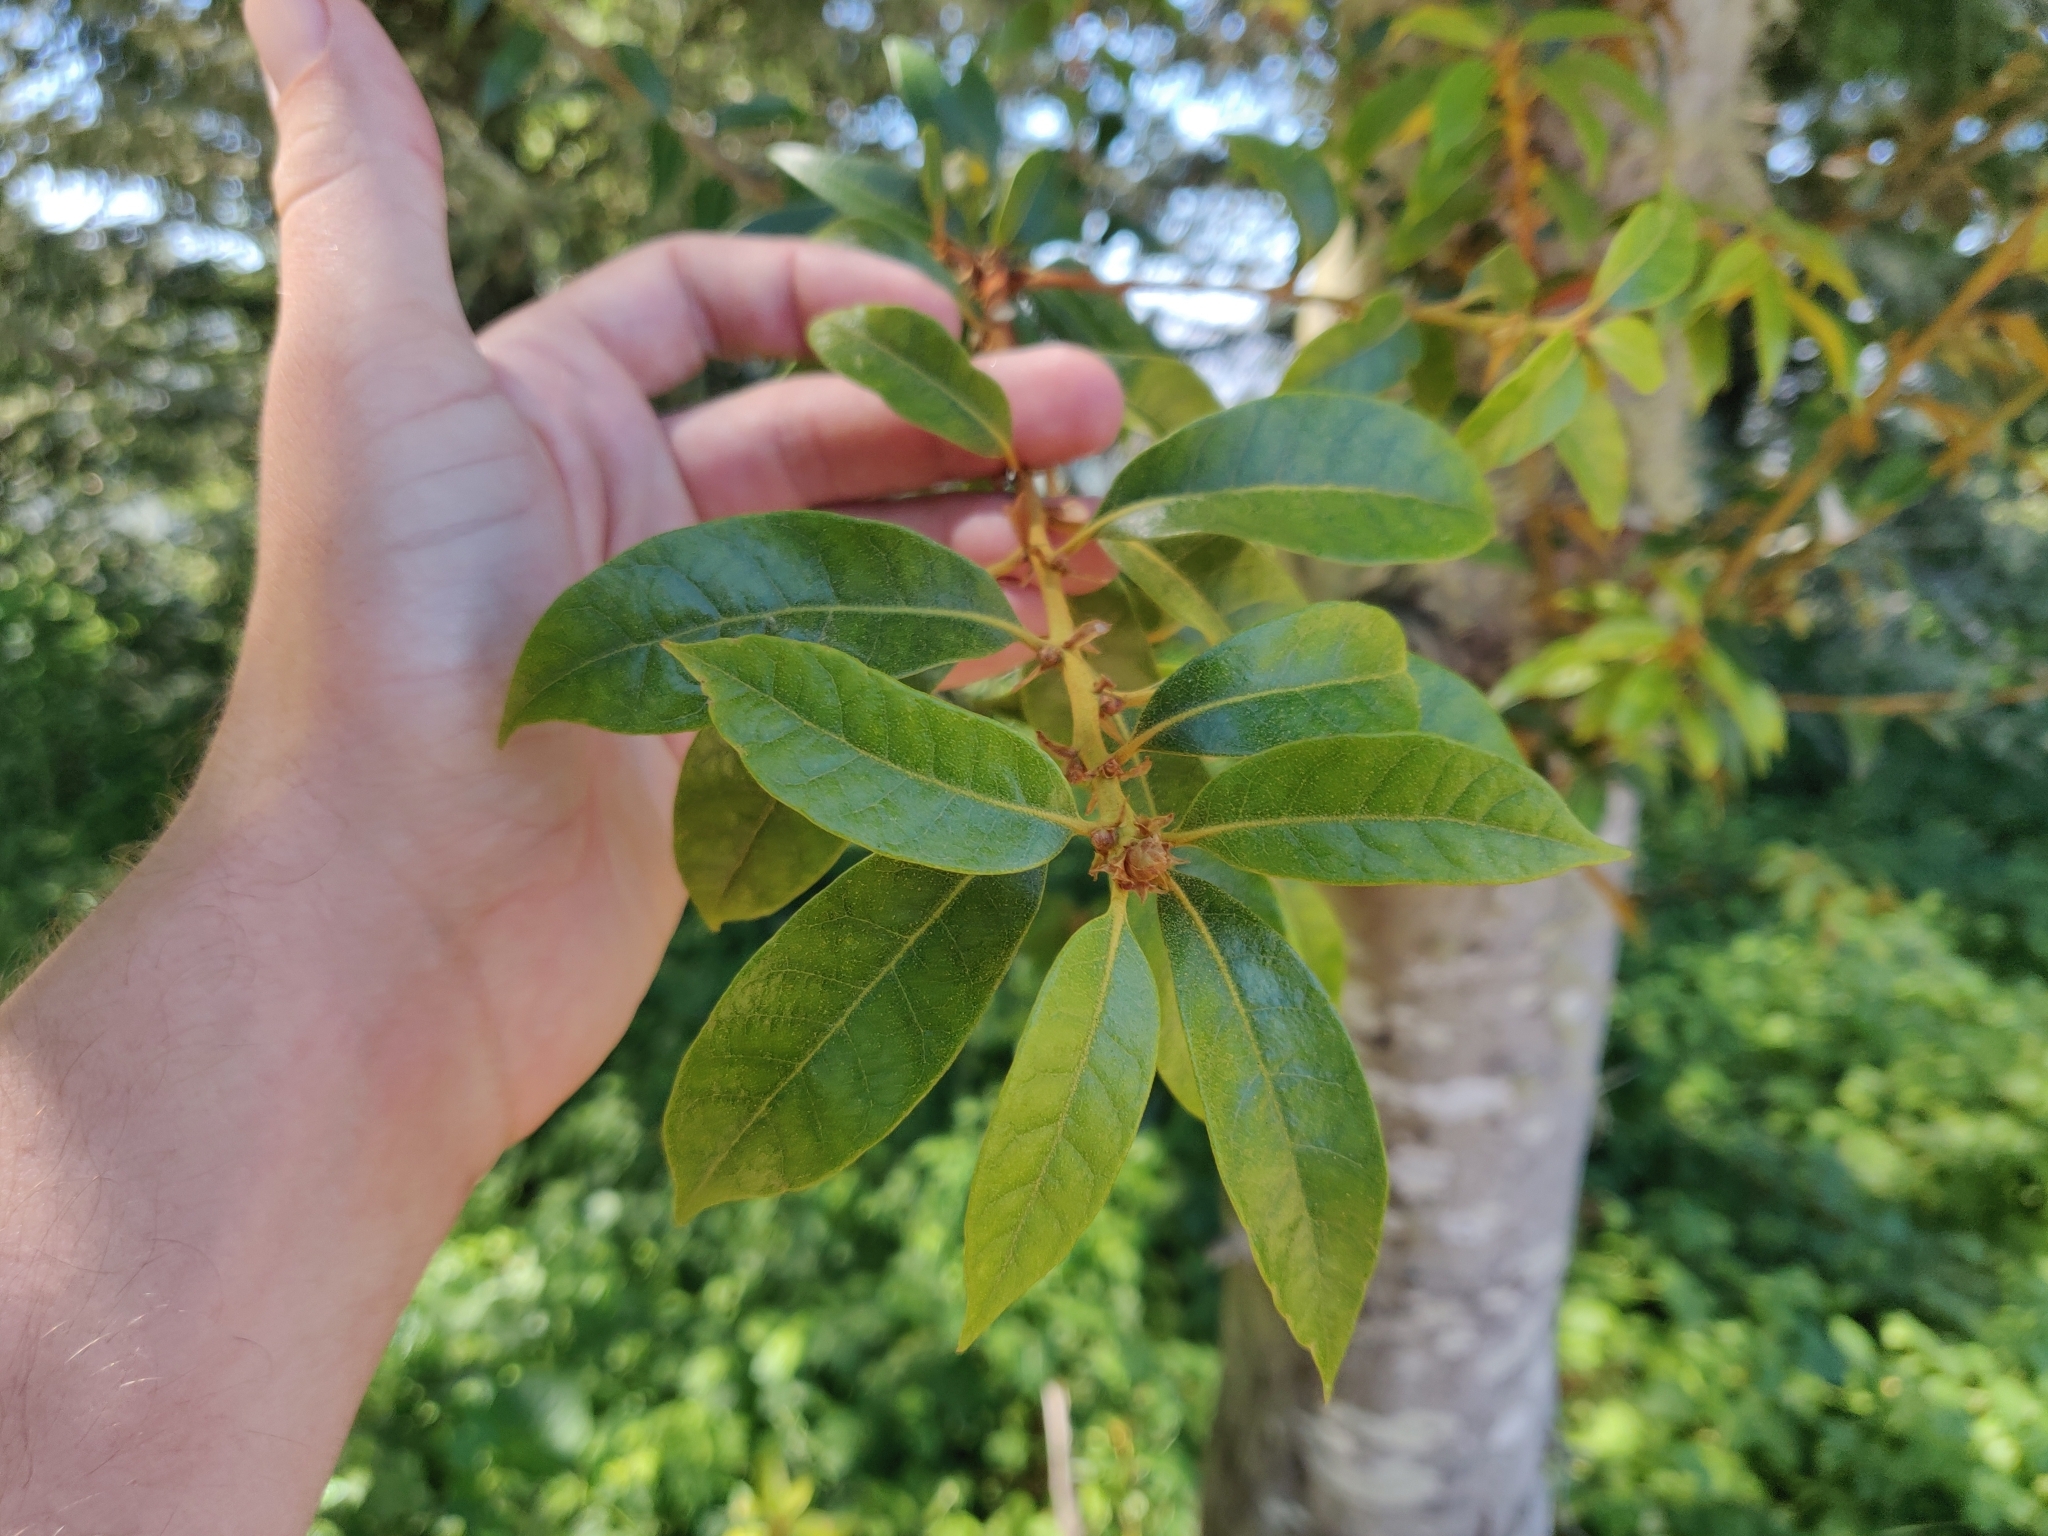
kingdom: Plantae
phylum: Tracheophyta
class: Magnoliopsida
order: Fagales
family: Fagaceae
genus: Chrysolepis
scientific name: Chrysolepis chrysophylla
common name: Giant chinquapin
